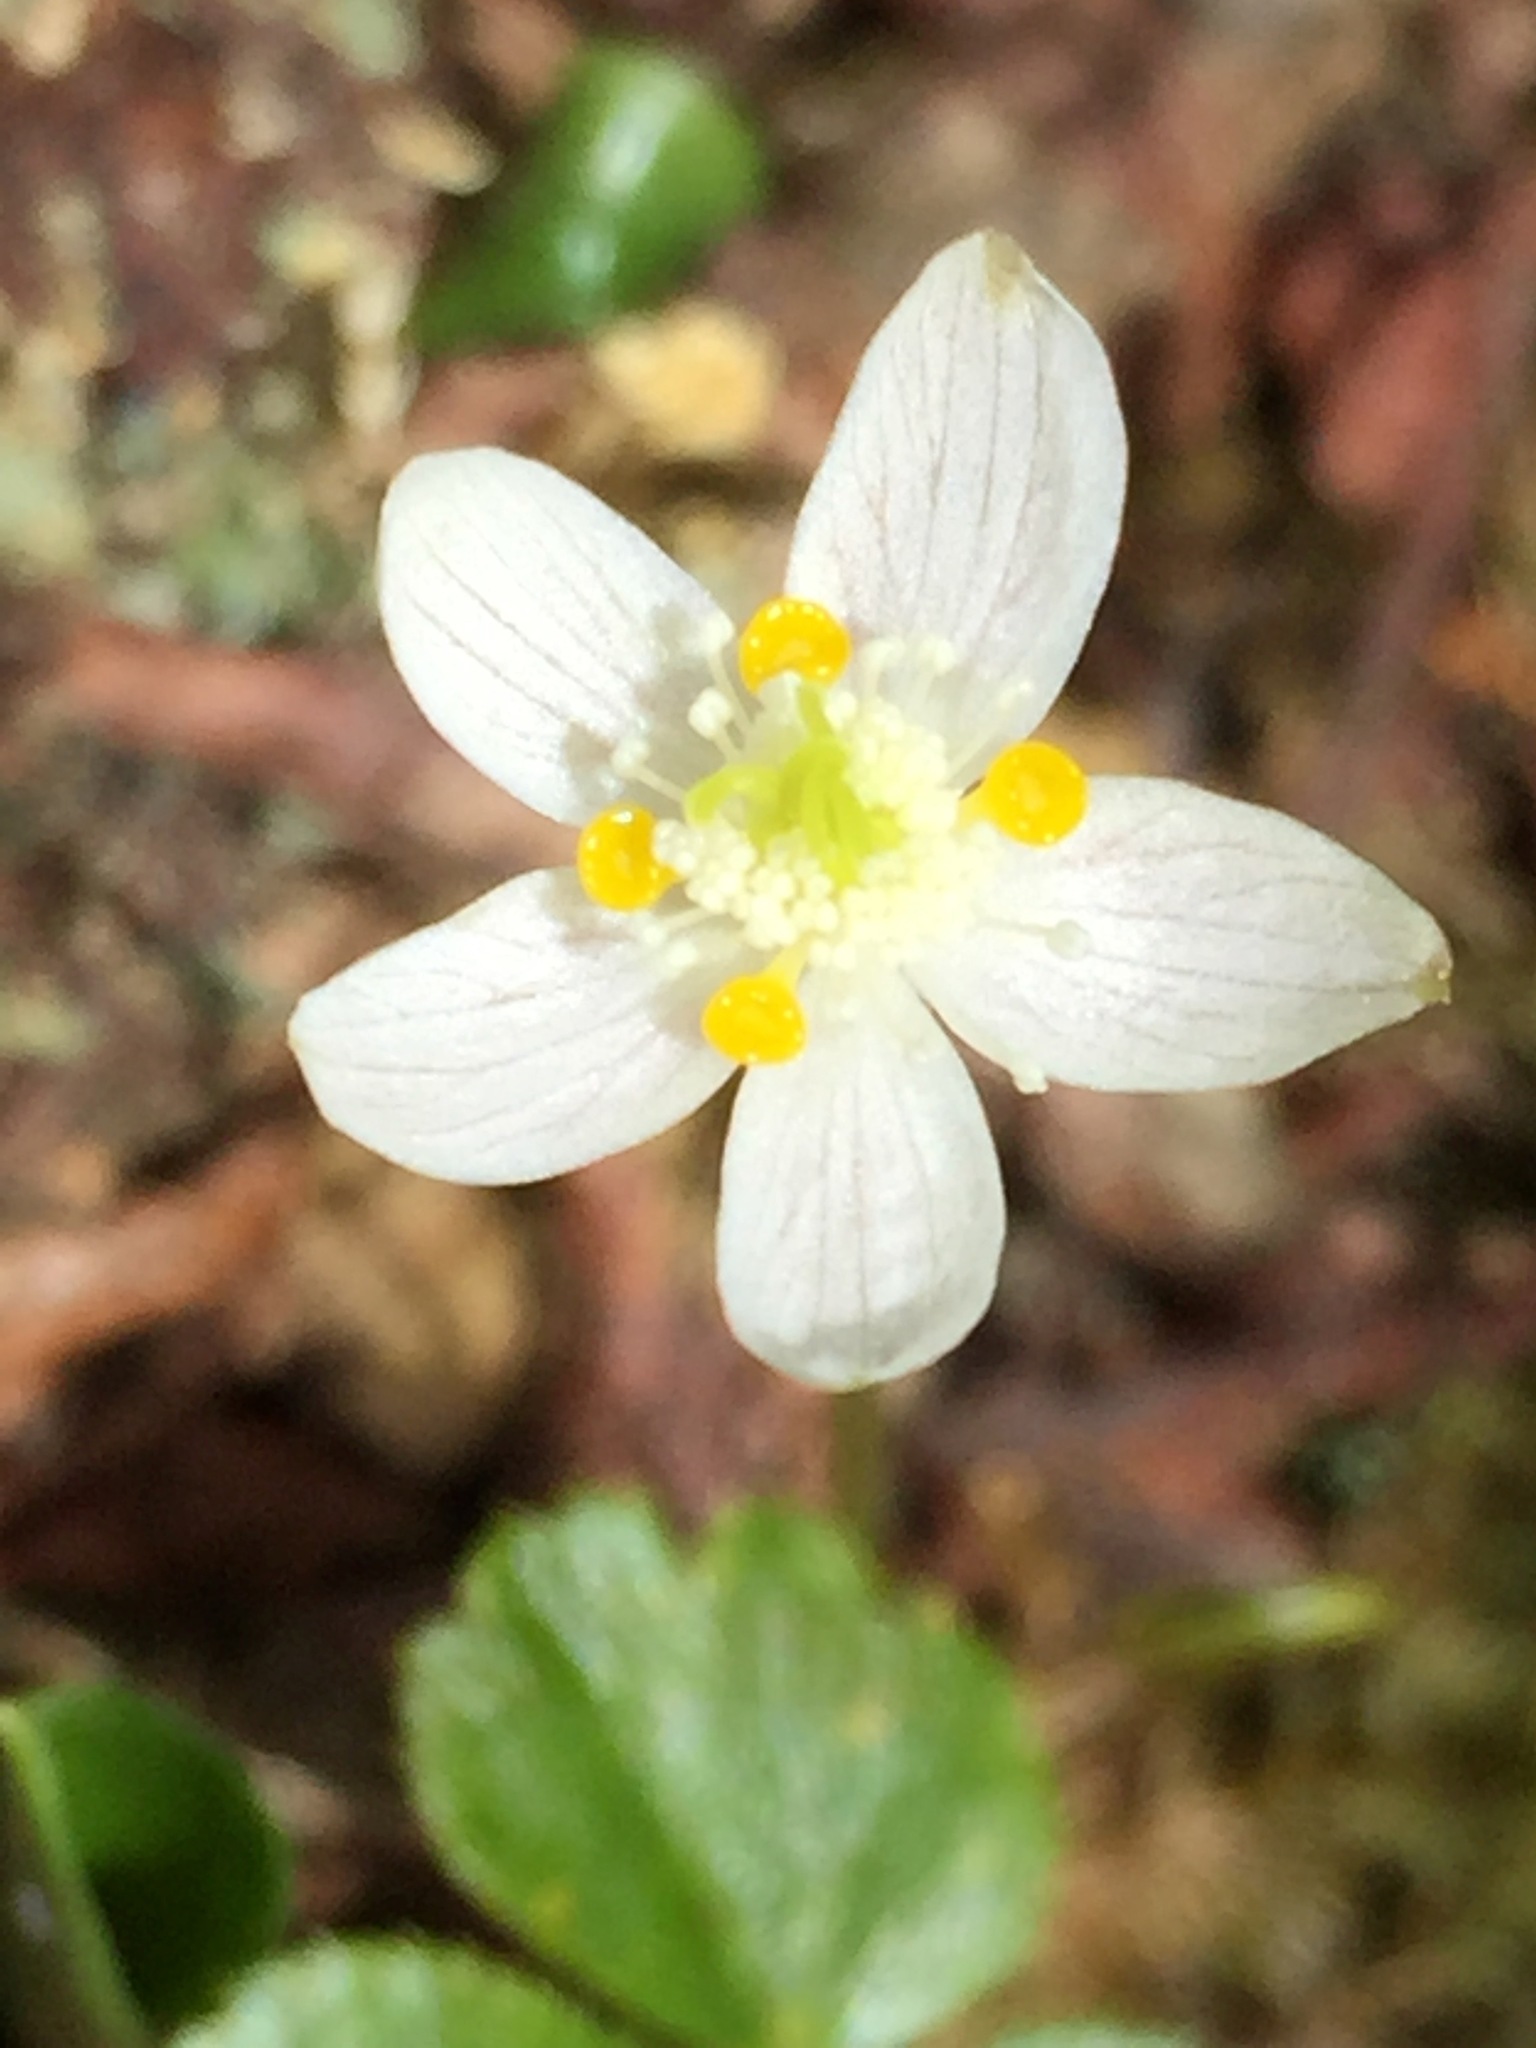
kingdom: Plantae
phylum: Tracheophyta
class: Magnoliopsida
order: Ranunculales
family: Ranunculaceae
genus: Coptis
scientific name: Coptis trifolia
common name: Canker-root
